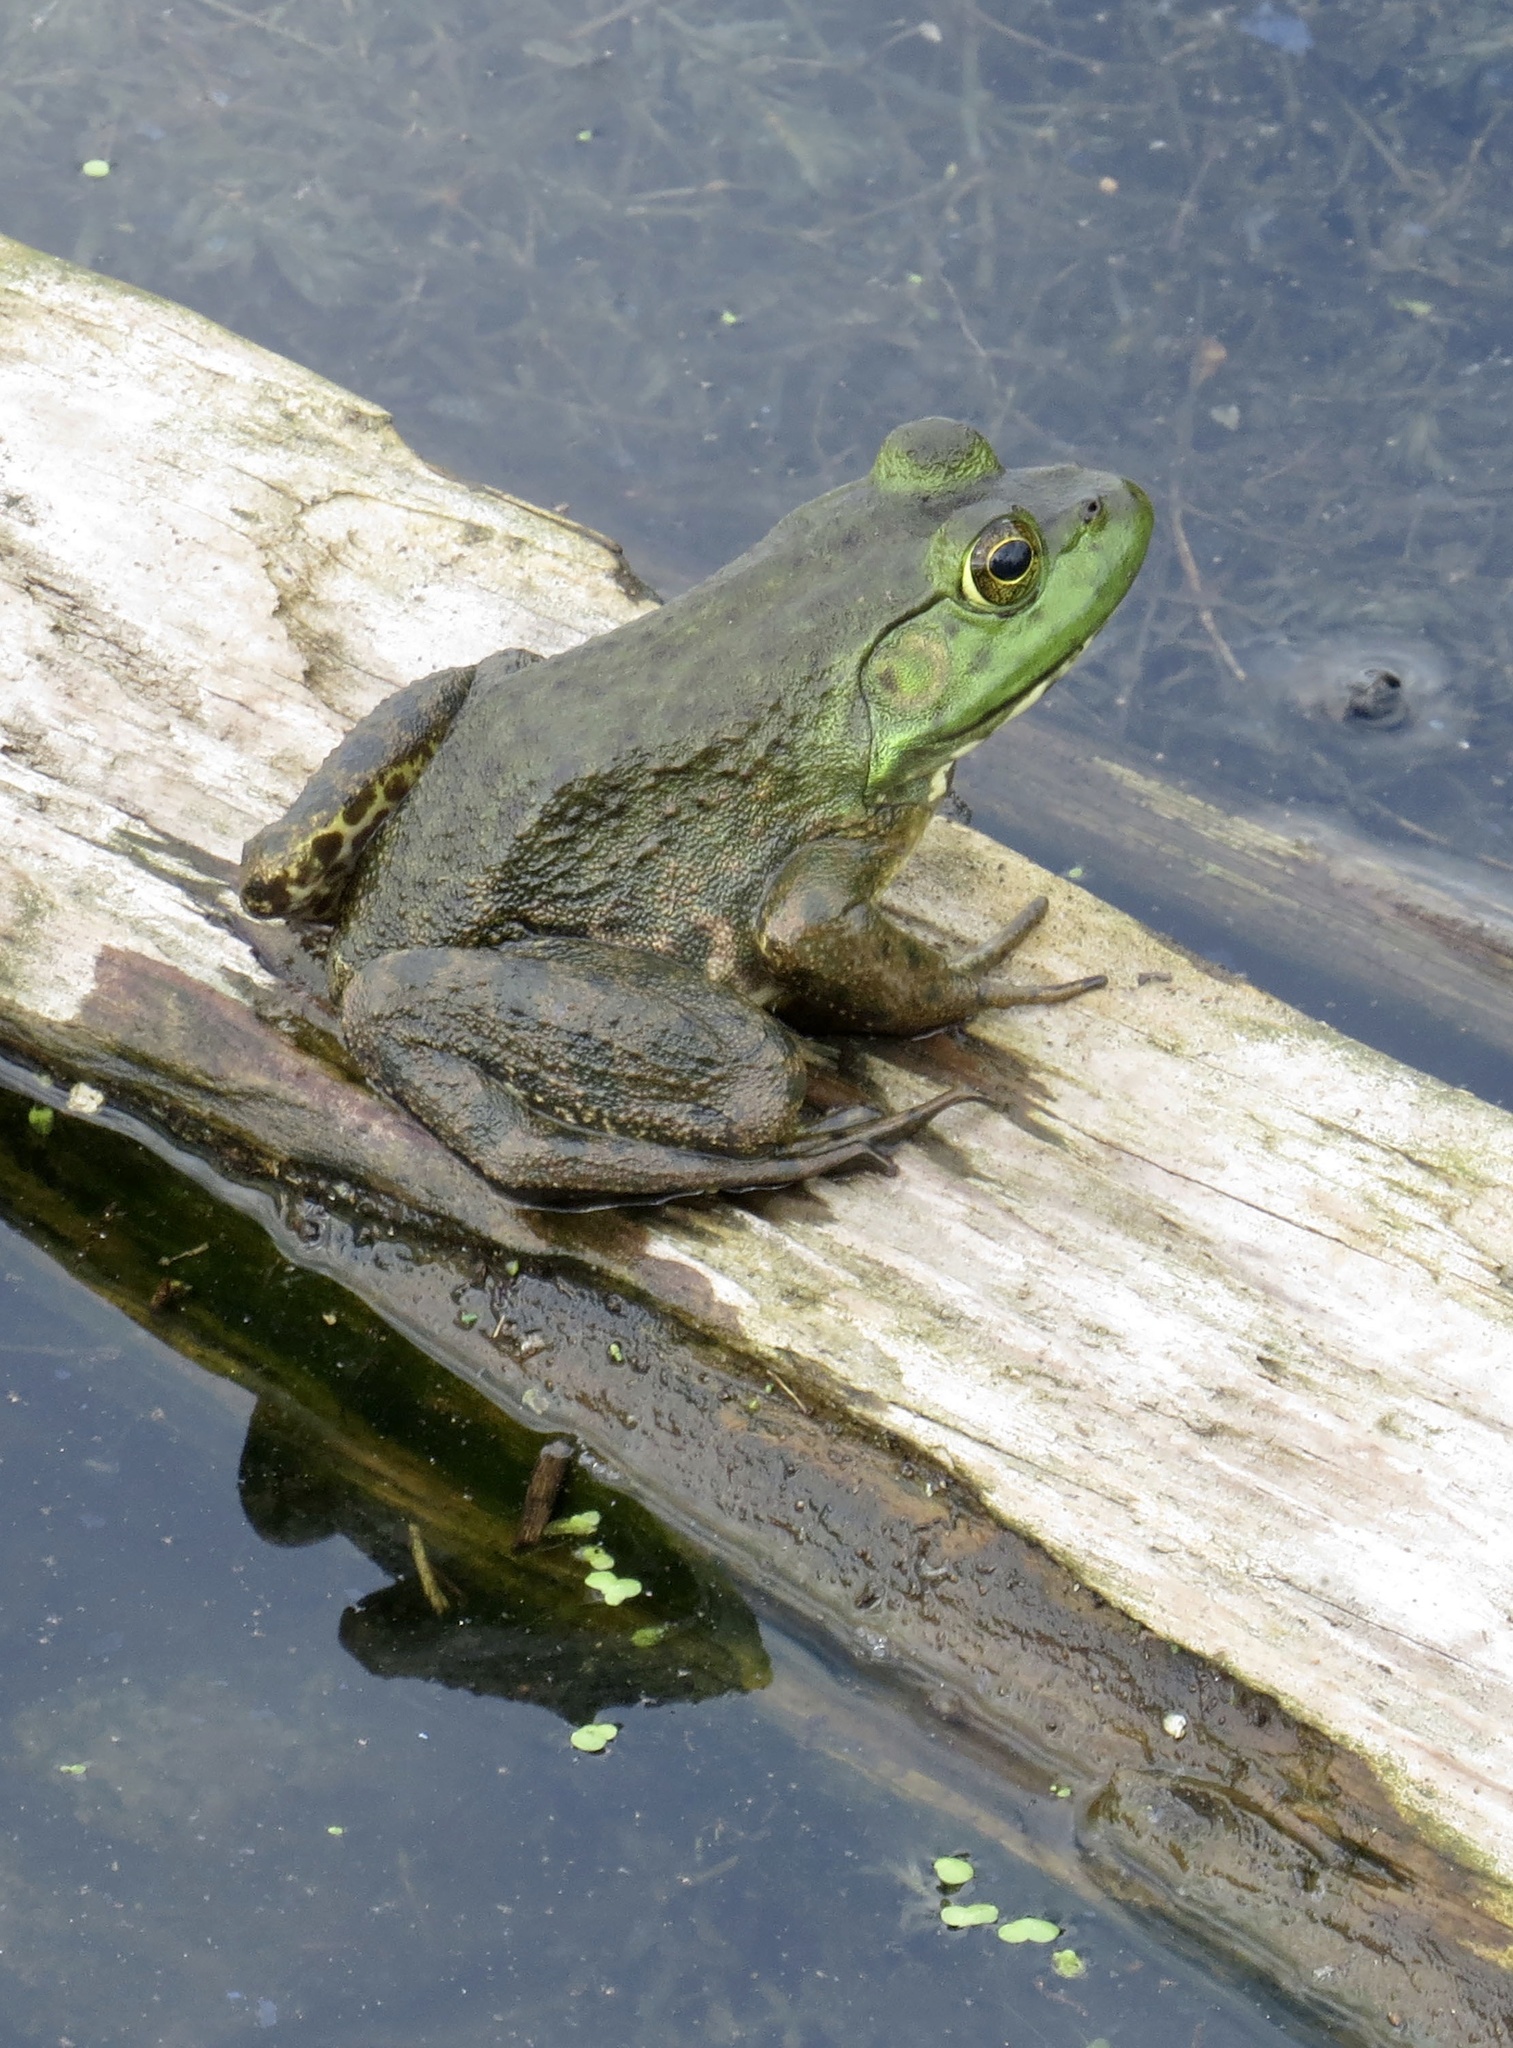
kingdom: Animalia
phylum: Chordata
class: Amphibia
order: Anura
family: Ranidae
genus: Lithobates
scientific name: Lithobates catesbeianus
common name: American bullfrog
